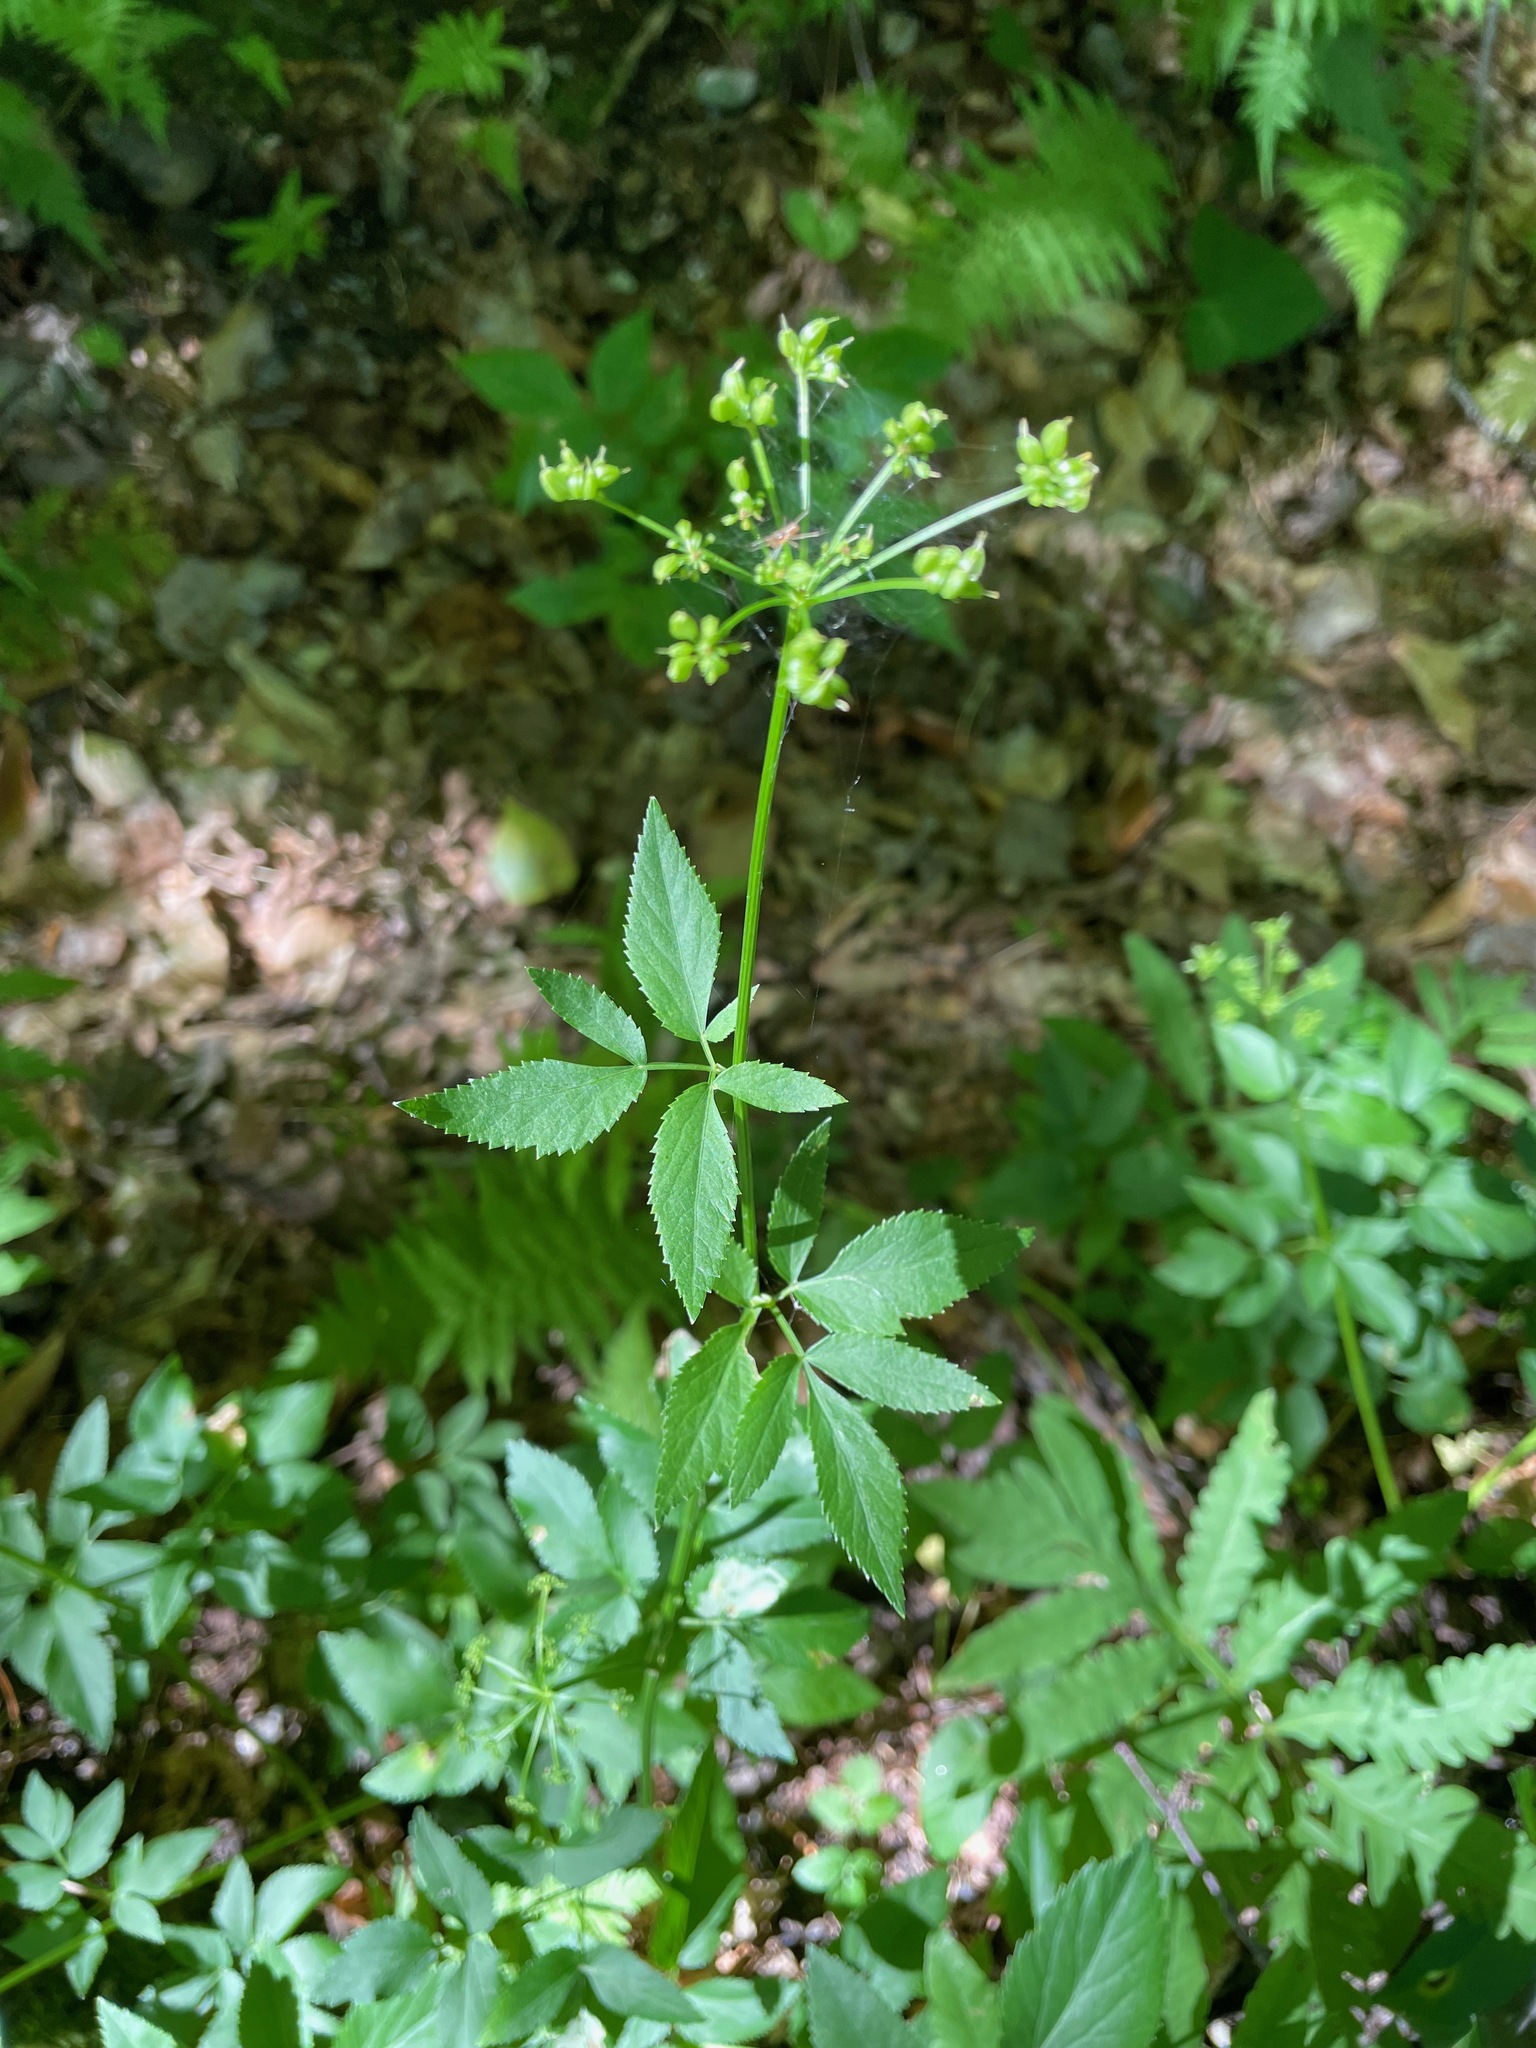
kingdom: Plantae
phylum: Tracheophyta
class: Magnoliopsida
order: Apiales
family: Apiaceae
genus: Zizia
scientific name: Zizia aurea
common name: Golden alexanders
